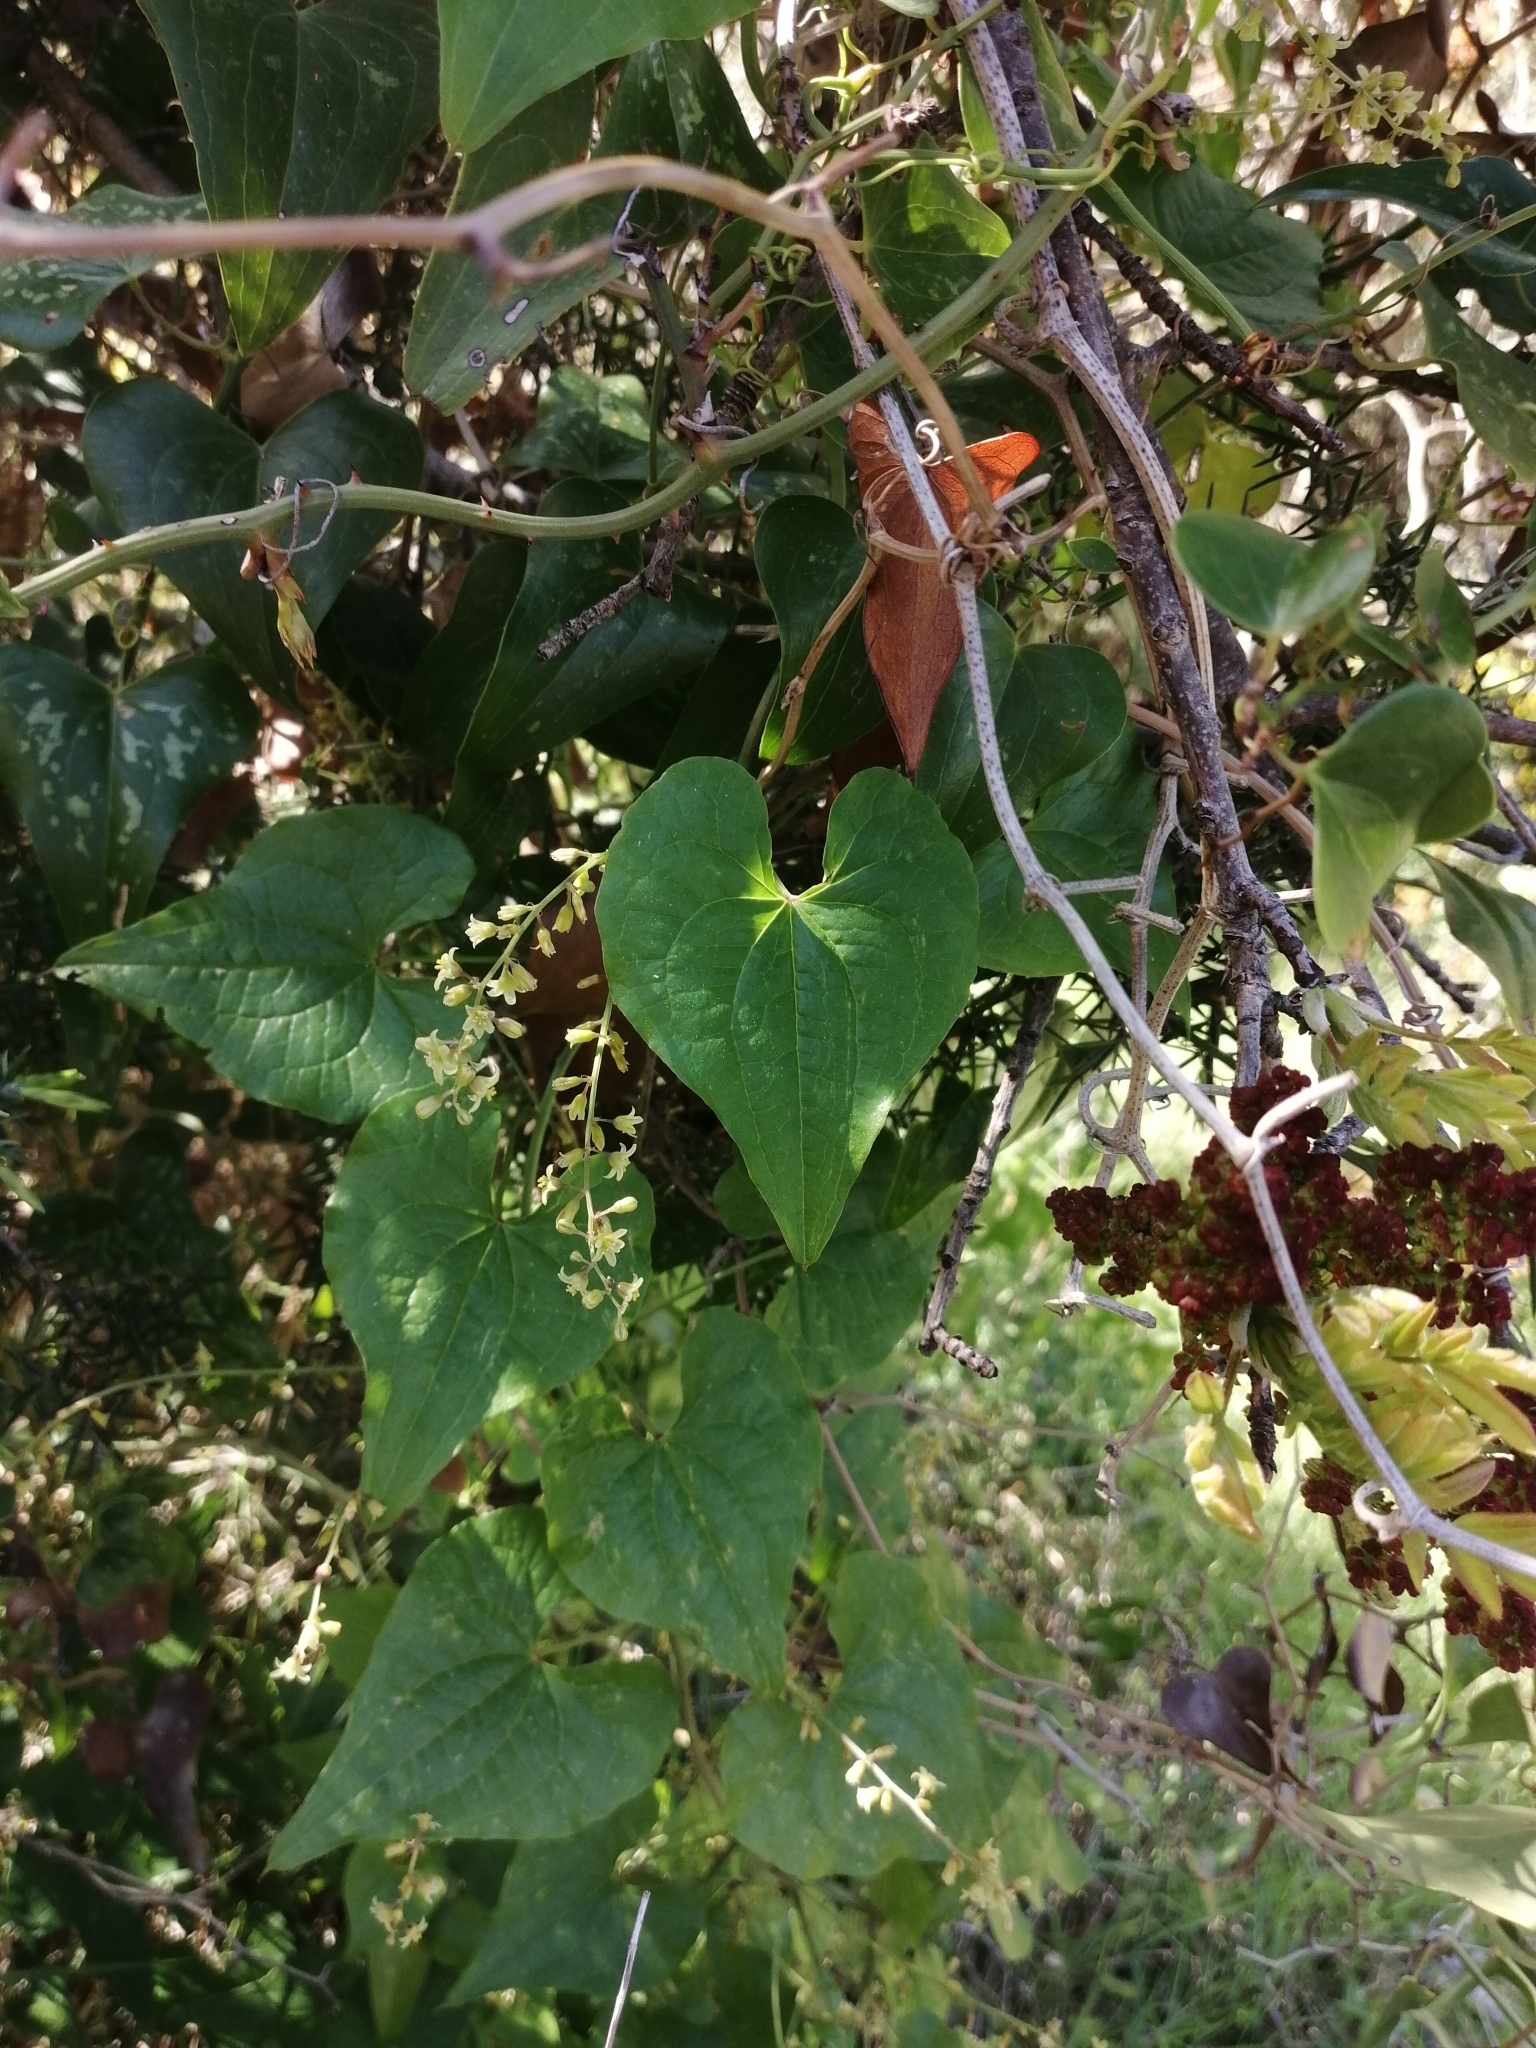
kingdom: Plantae
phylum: Tracheophyta
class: Liliopsida
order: Dioscoreales
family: Dioscoreaceae
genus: Dioscorea
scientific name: Dioscorea communis
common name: Black-bindweed
